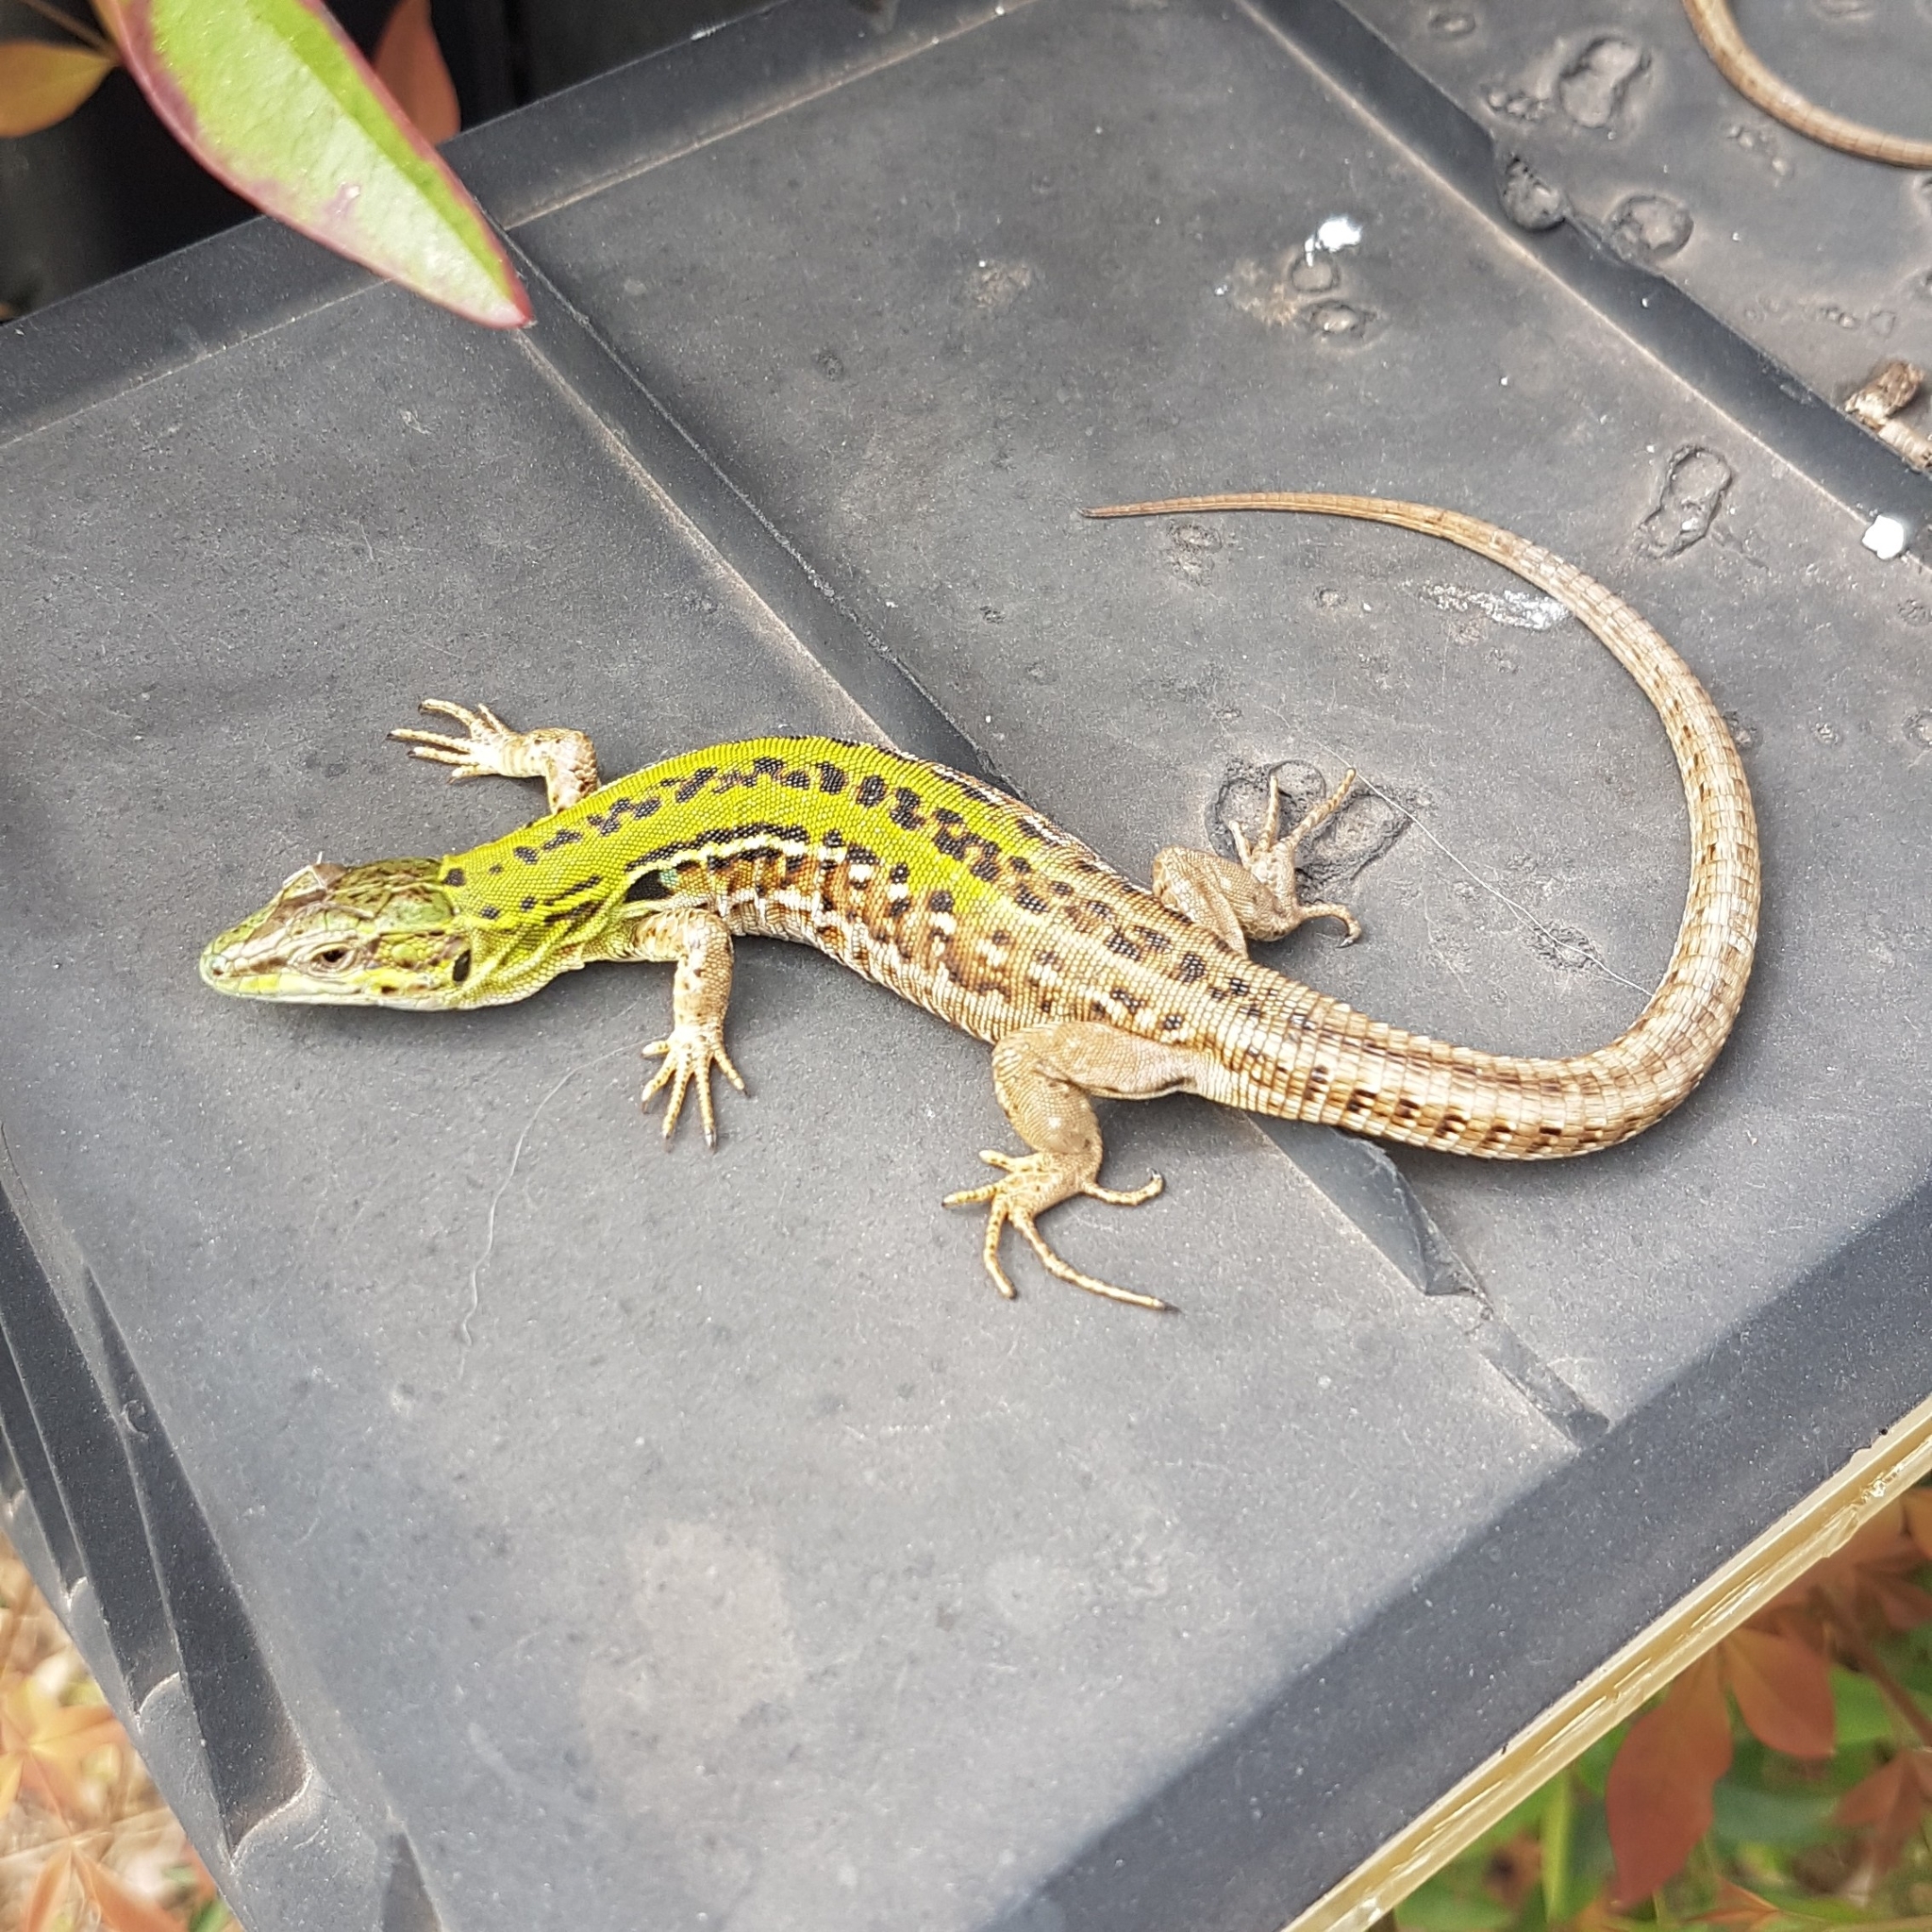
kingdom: Animalia
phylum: Chordata
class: Squamata
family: Lacertidae
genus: Podarcis
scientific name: Podarcis siculus
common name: Italian wall lizard
